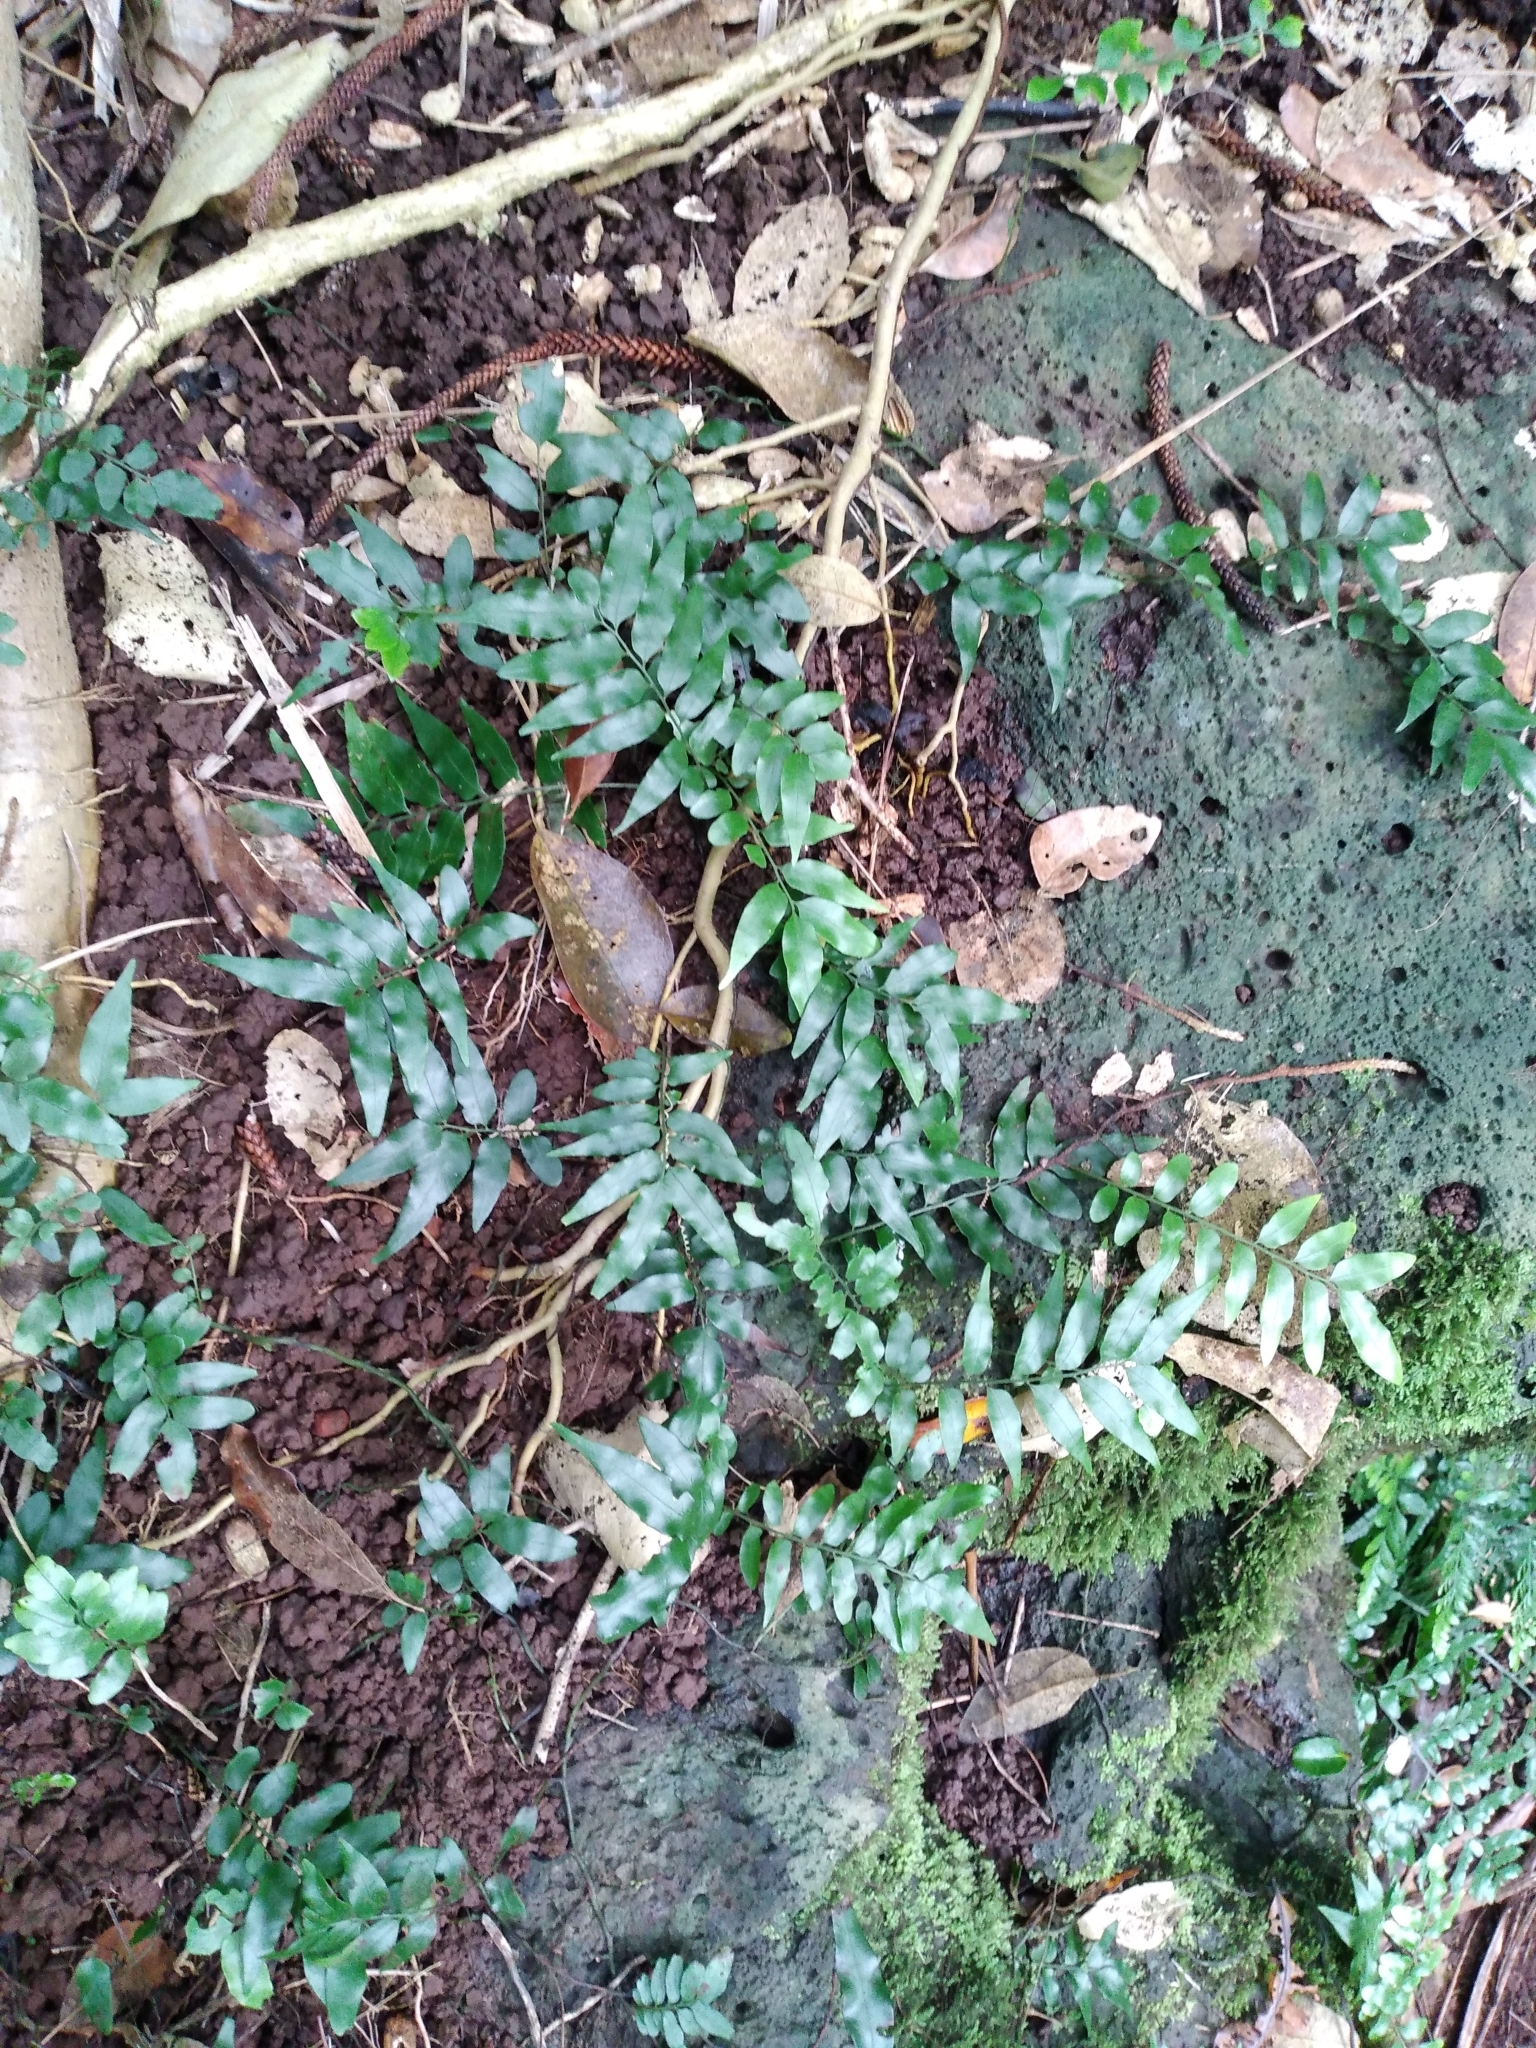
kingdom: Plantae
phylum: Tracheophyta
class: Polypodiopsida
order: Polypodiales
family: Tectariaceae
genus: Arthropteris
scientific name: Arthropteris tenella
